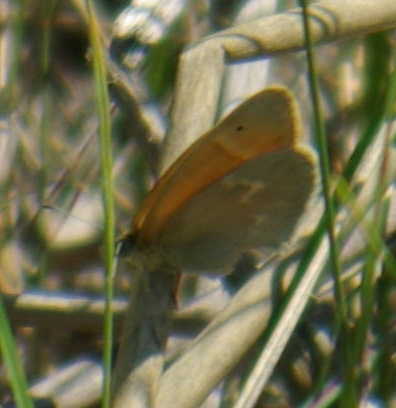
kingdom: Animalia
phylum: Arthropoda
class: Insecta
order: Lepidoptera
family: Nymphalidae
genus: Coenonympha
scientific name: Coenonympha california
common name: Common ringlet
